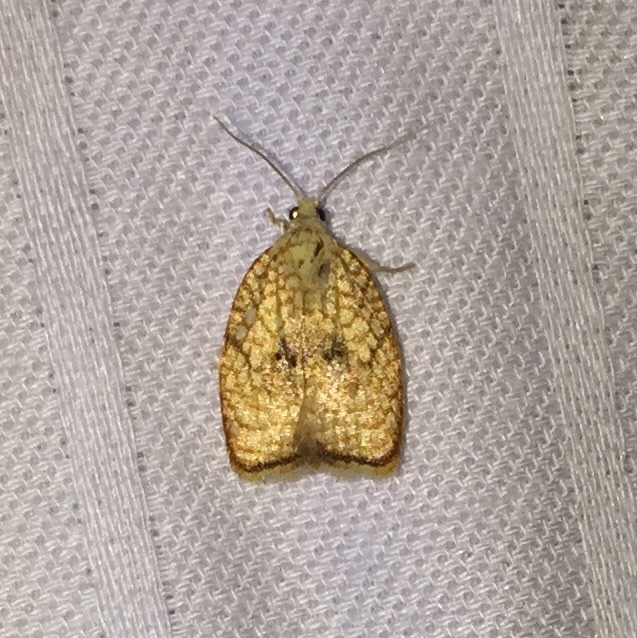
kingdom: Animalia
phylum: Arthropoda
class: Insecta
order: Lepidoptera
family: Tortricidae
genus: Acleris
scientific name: Acleris forsskaleana
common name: Maple button
